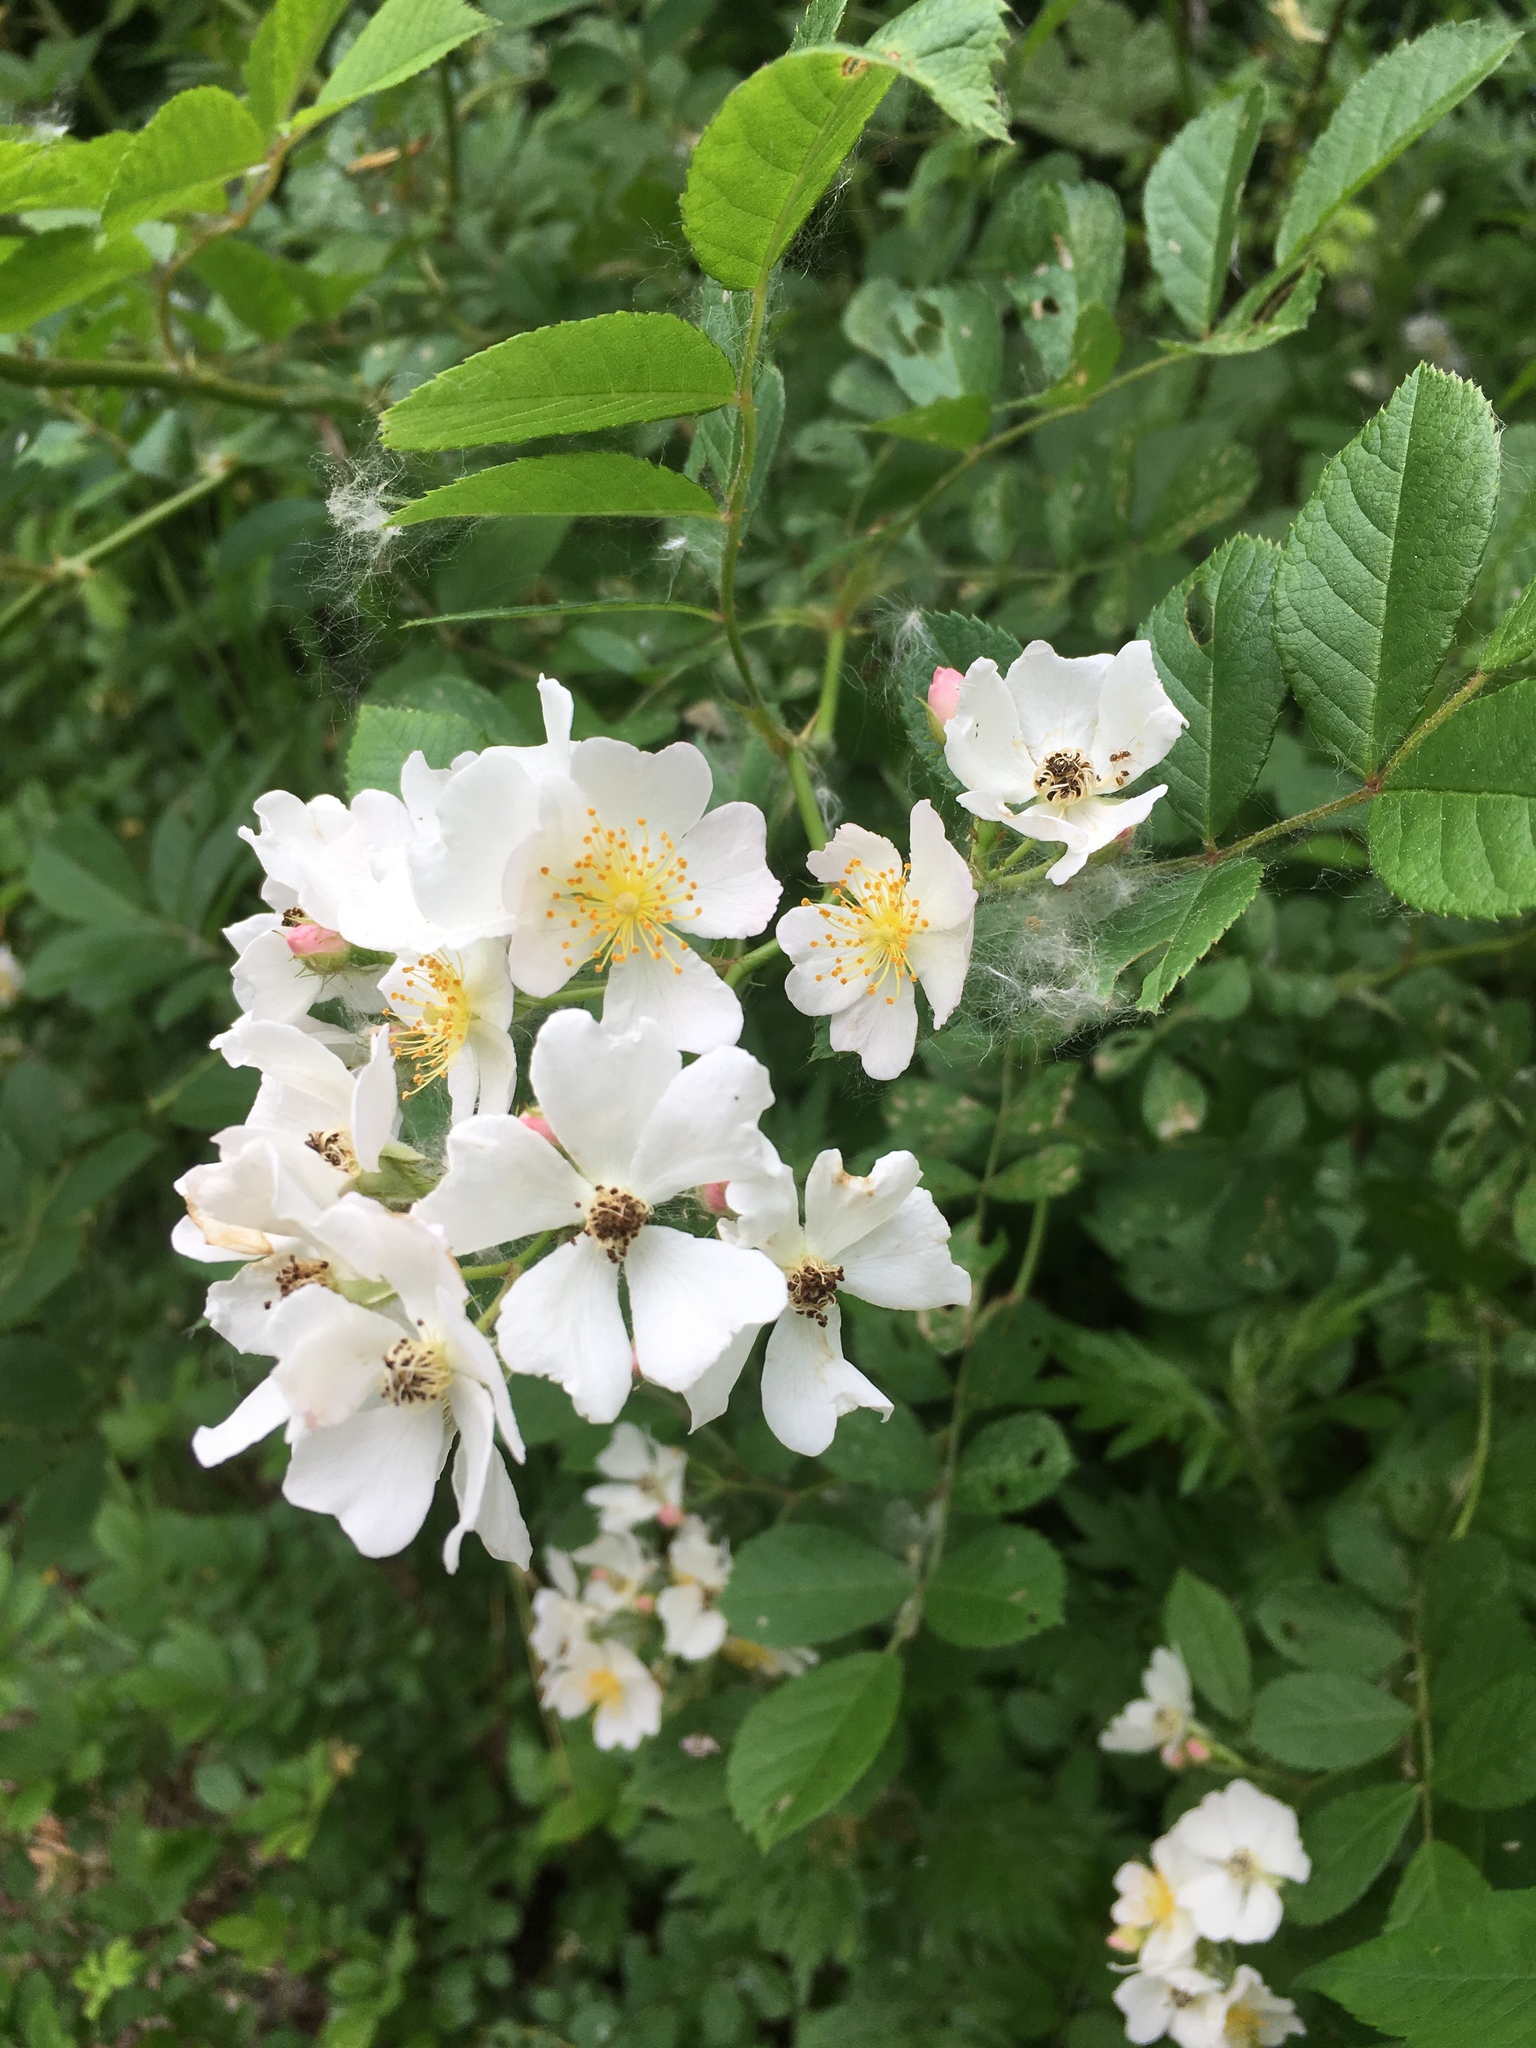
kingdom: Plantae
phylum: Tracheophyta
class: Magnoliopsida
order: Rosales
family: Rosaceae
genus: Rosa
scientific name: Rosa multiflora
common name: Multiflora rose
